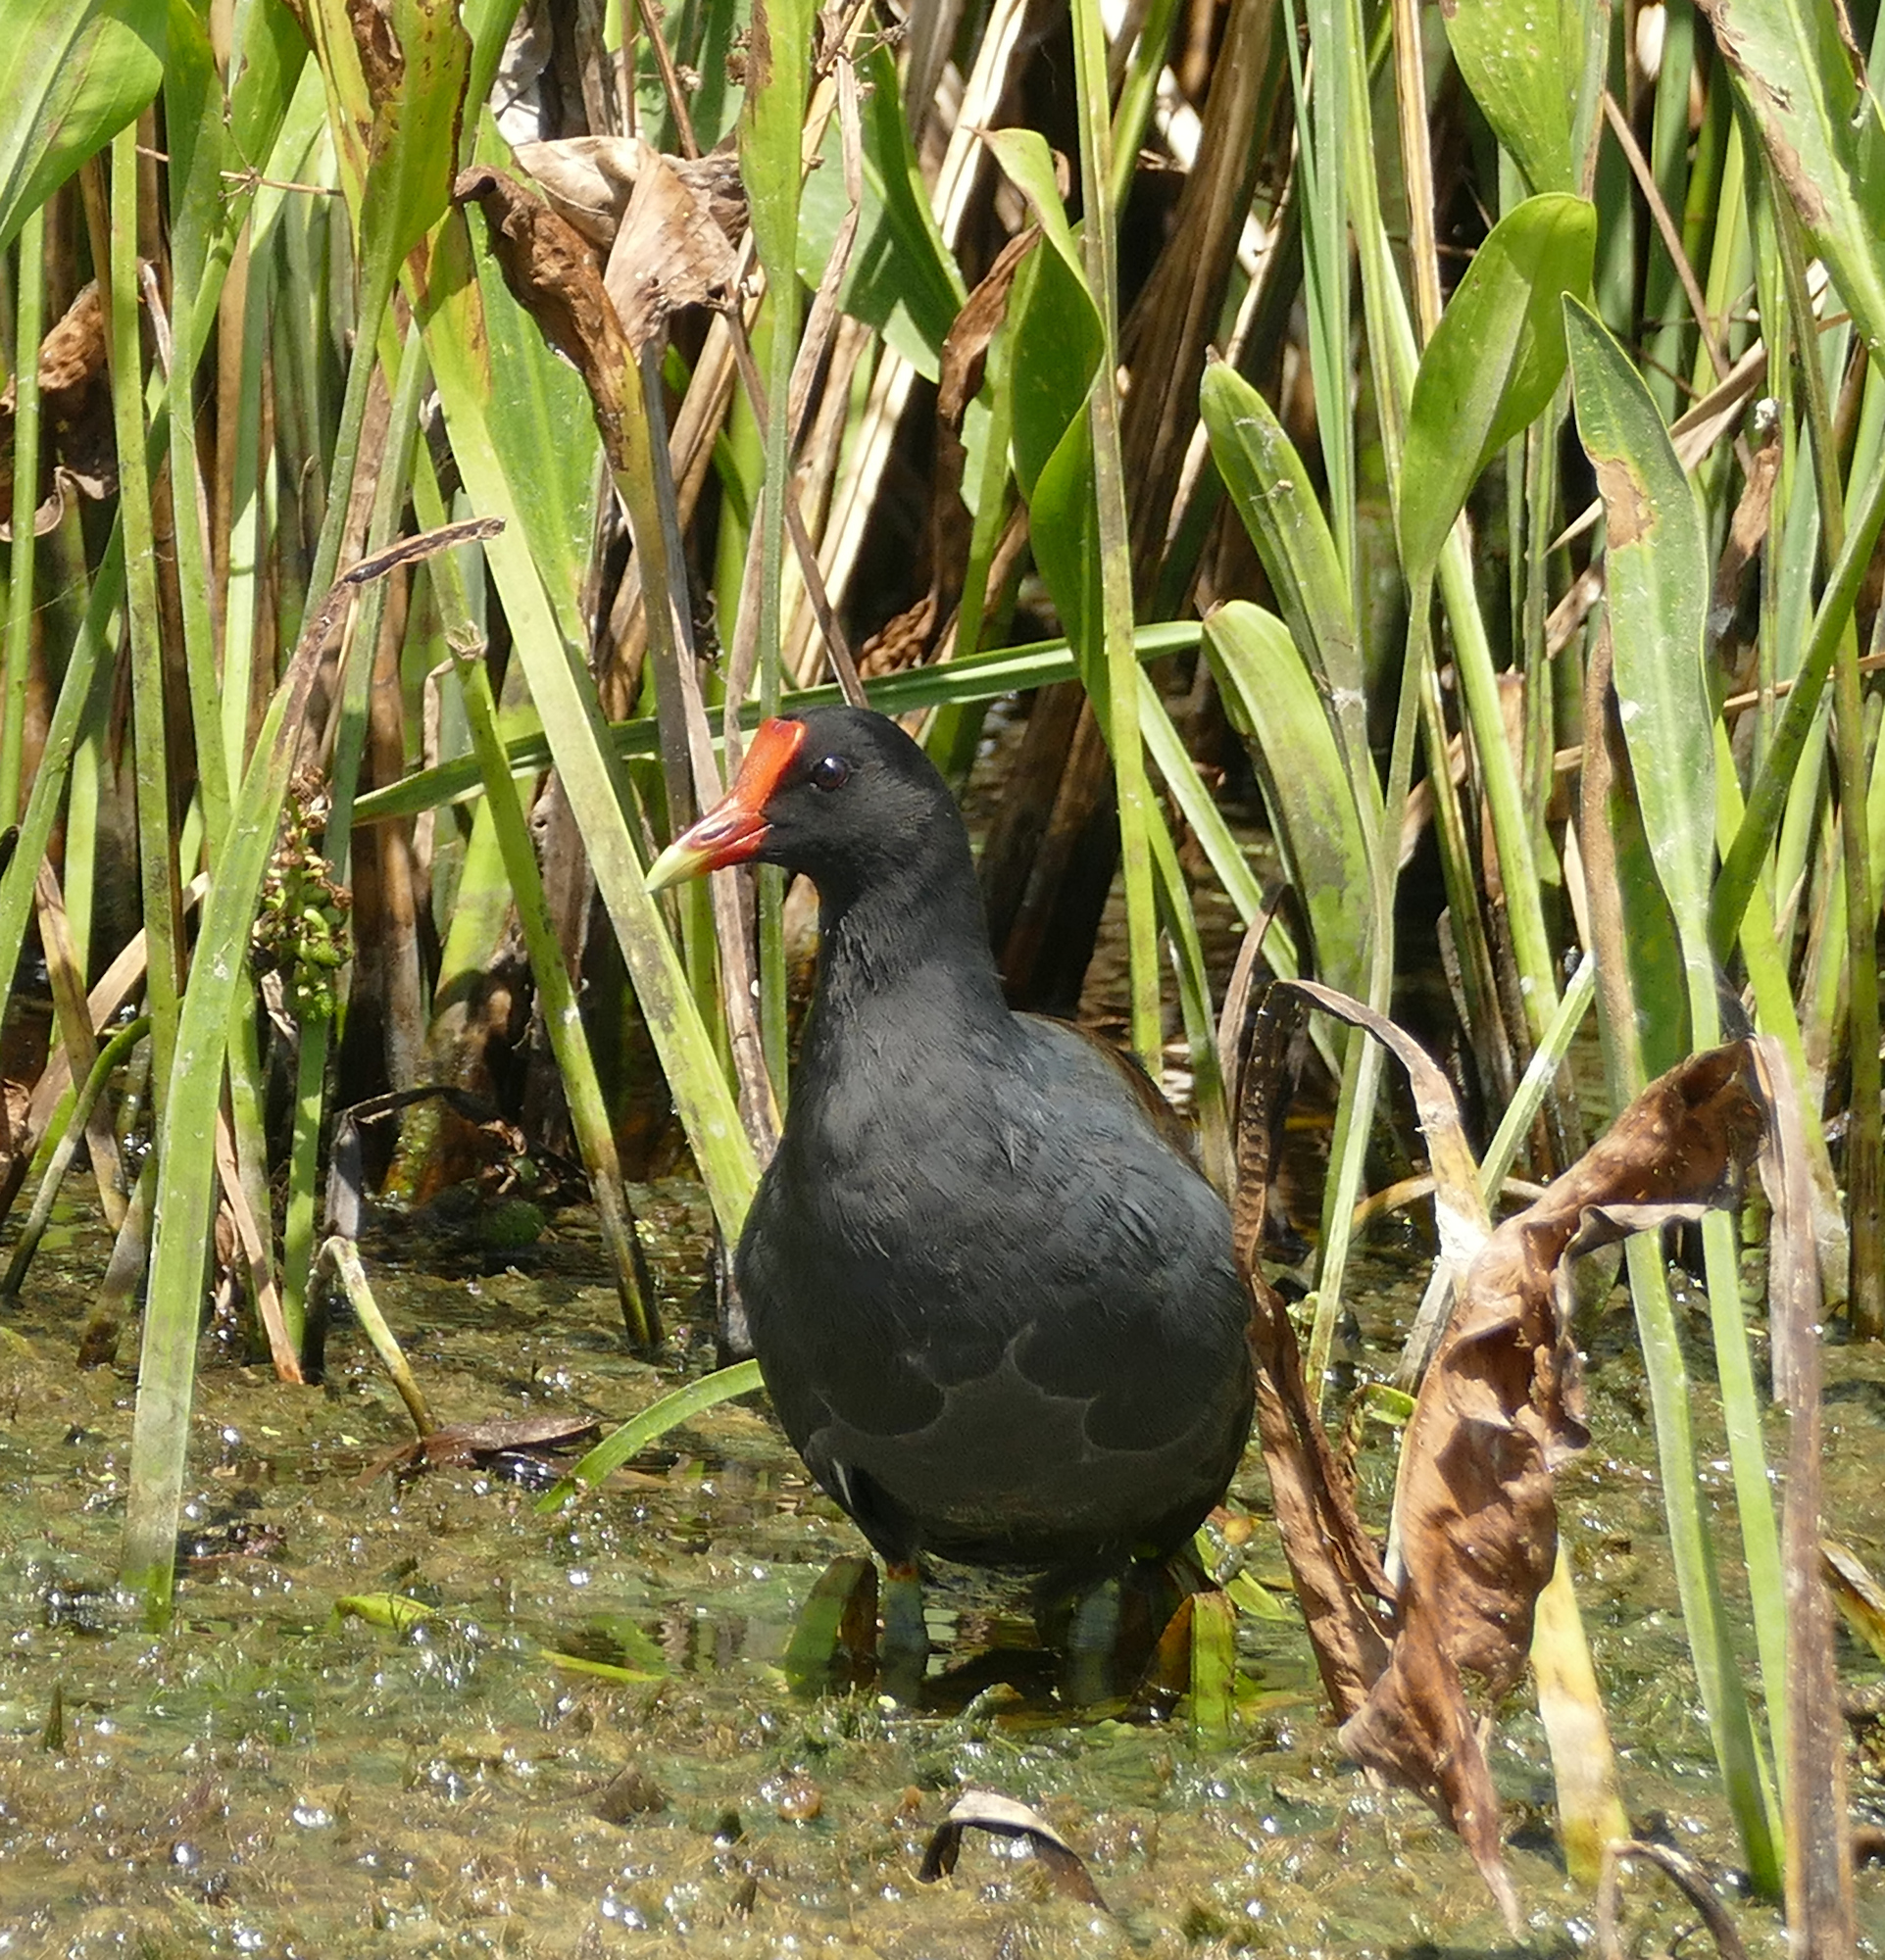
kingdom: Animalia
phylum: Chordata
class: Aves
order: Gruiformes
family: Rallidae
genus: Gallinula
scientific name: Gallinula chloropus
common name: Common moorhen
